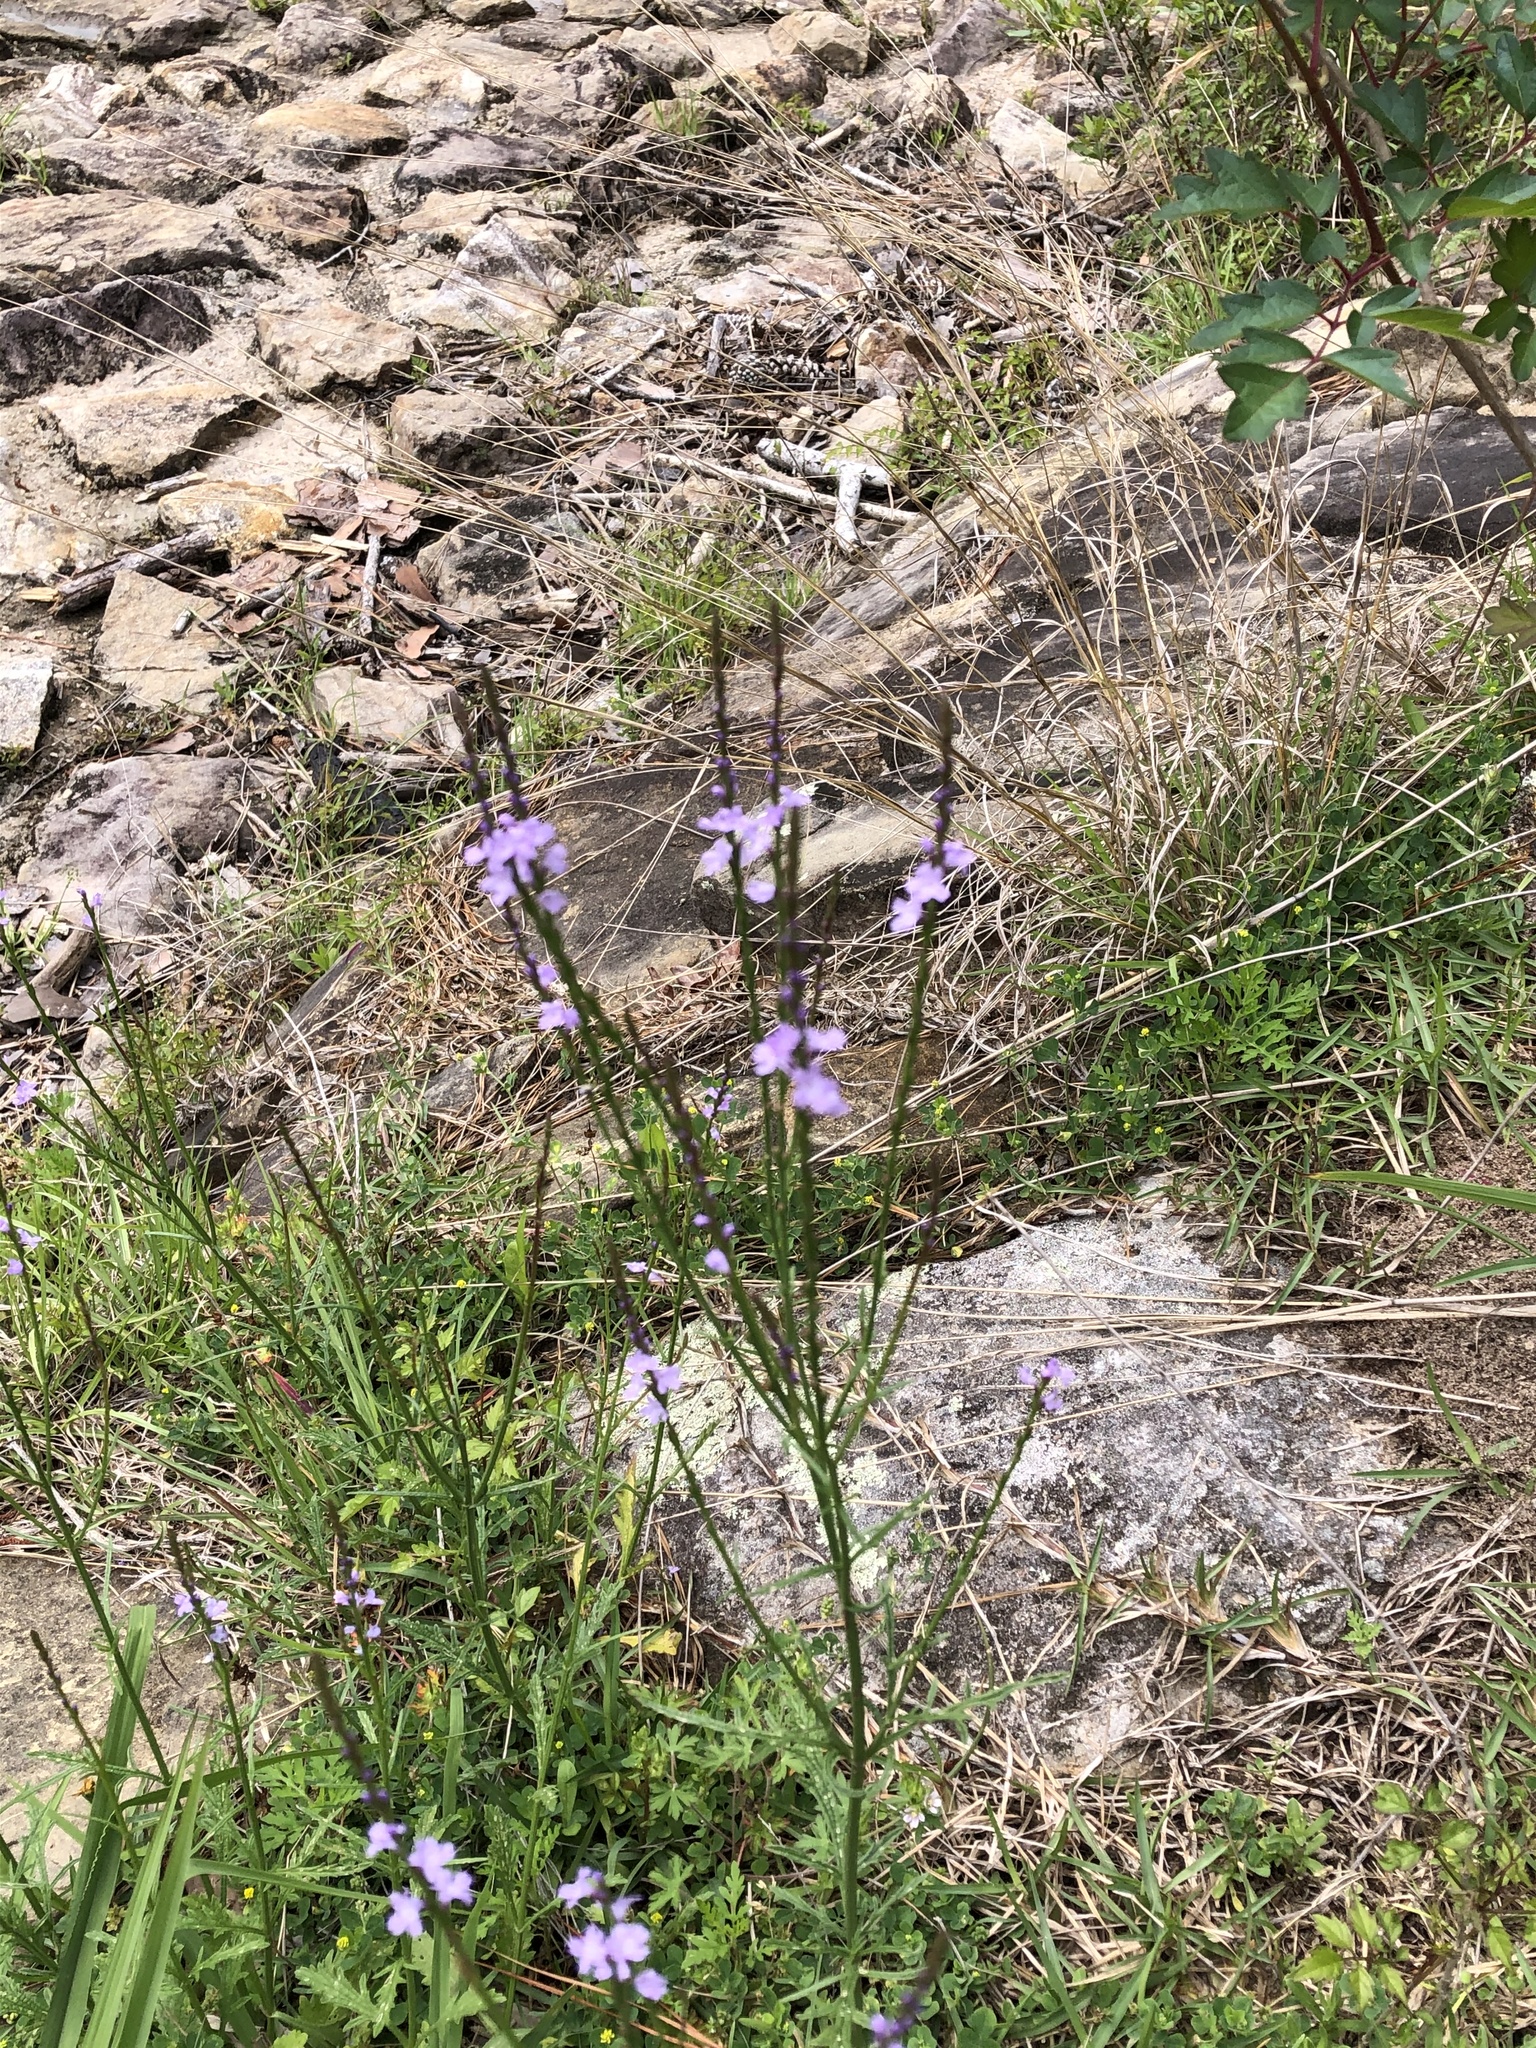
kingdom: Plantae
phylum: Tracheophyta
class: Magnoliopsida
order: Lamiales
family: Verbenaceae
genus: Verbena
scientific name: Verbena halei
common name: Texas vervain
